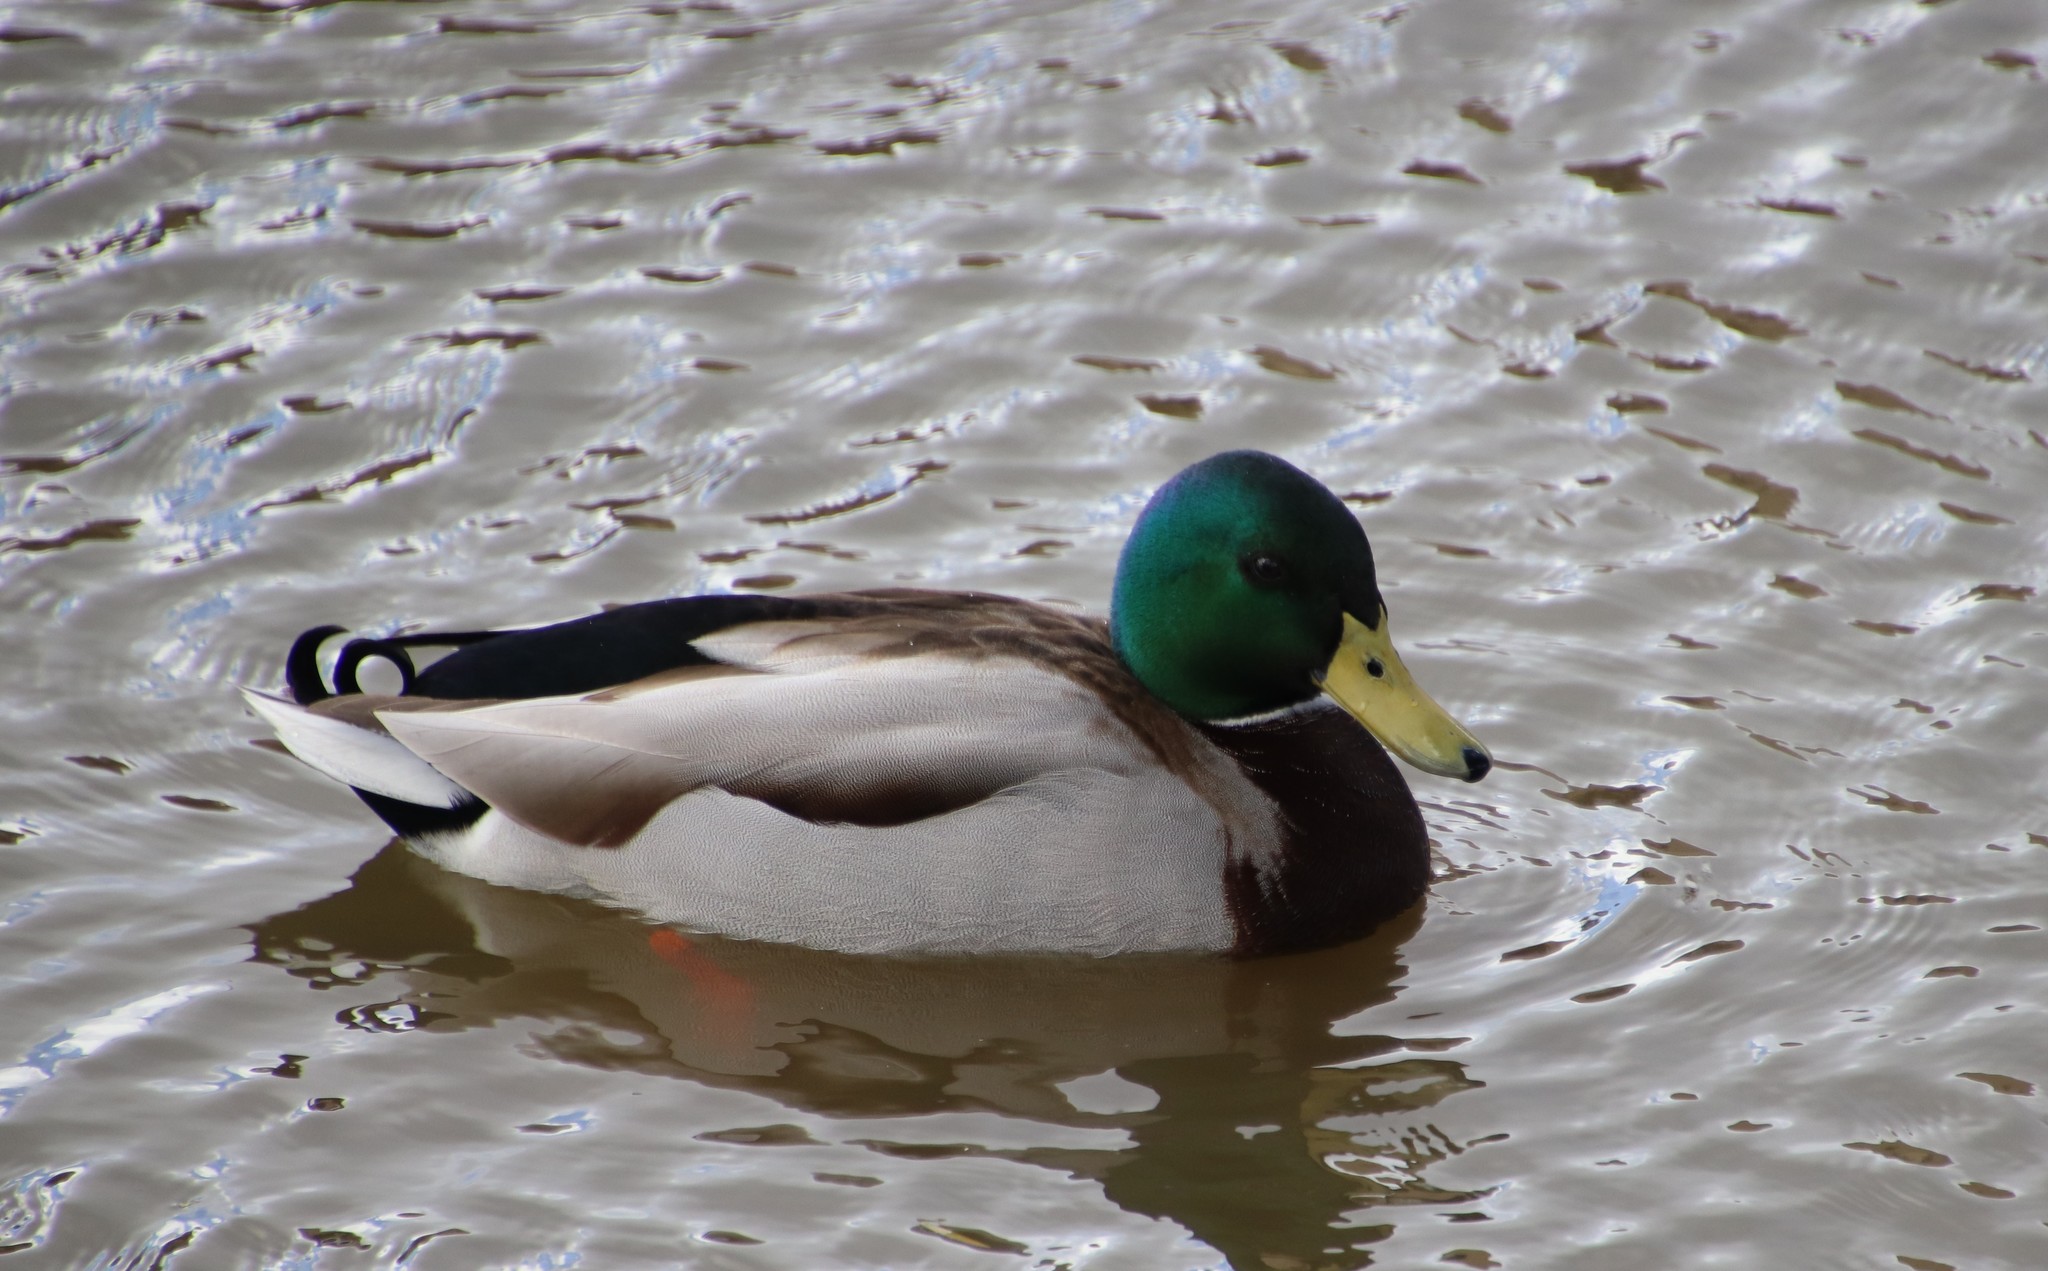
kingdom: Animalia
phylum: Chordata
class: Aves
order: Anseriformes
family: Anatidae
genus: Anas
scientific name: Anas platyrhynchos
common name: Mallard
